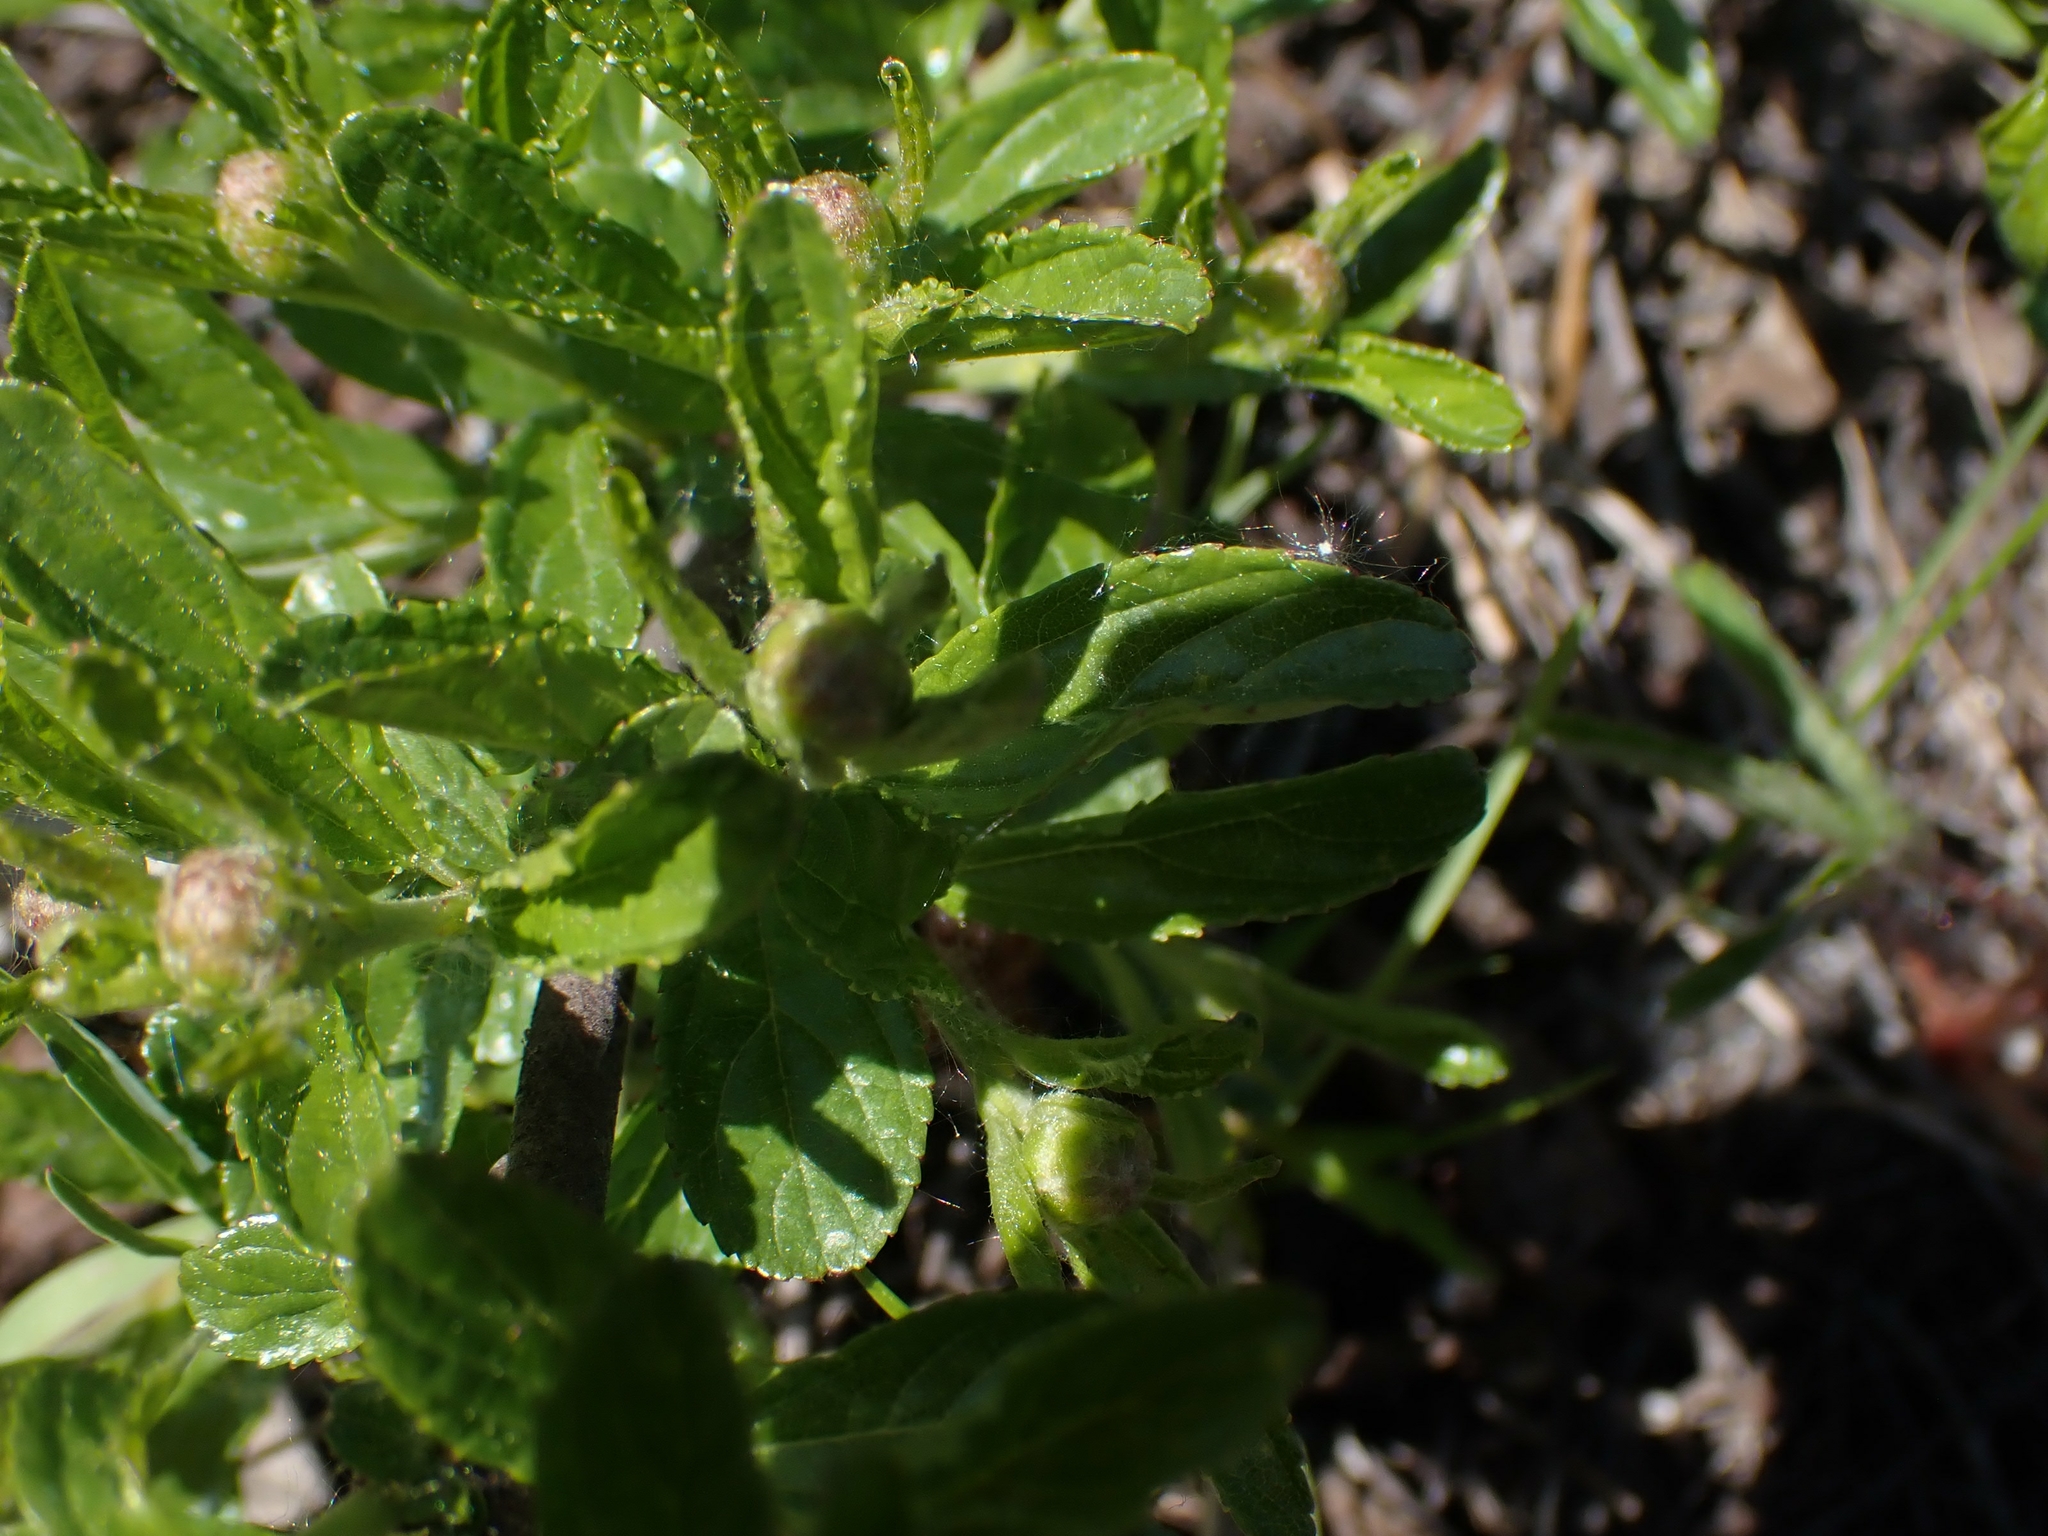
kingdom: Plantae
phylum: Tracheophyta
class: Magnoliopsida
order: Rosales
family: Rhamnaceae
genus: Ceanothus
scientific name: Ceanothus herbaceus
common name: Inland ceanothus
